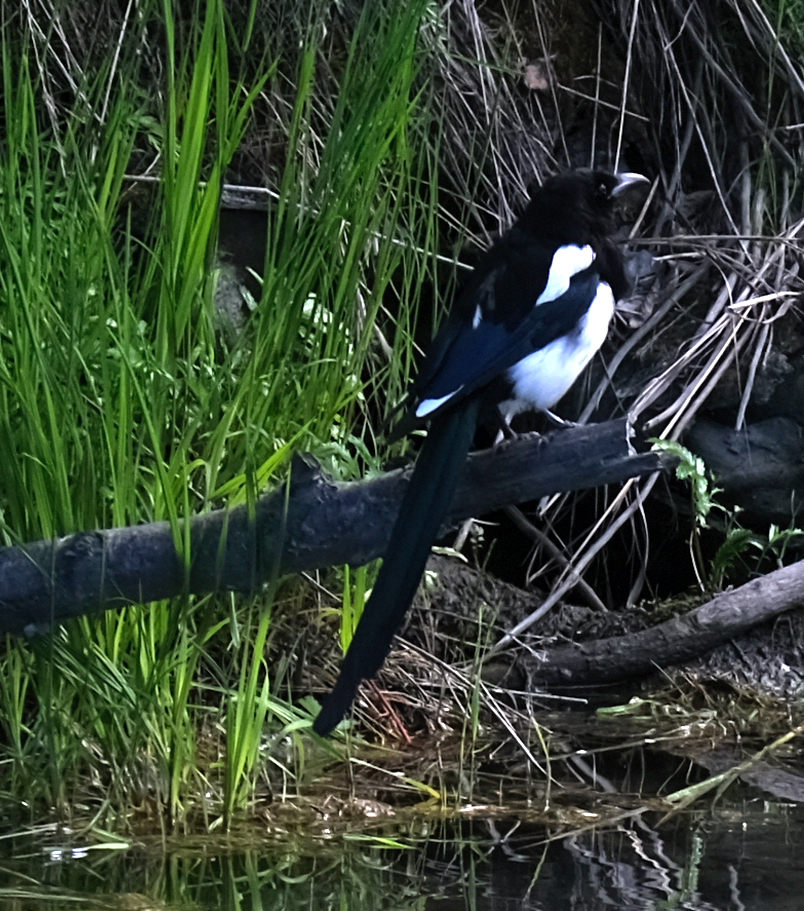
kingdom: Animalia
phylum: Chordata
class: Aves
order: Passeriformes
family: Corvidae
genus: Pica
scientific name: Pica hudsonia
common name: Black-billed magpie
